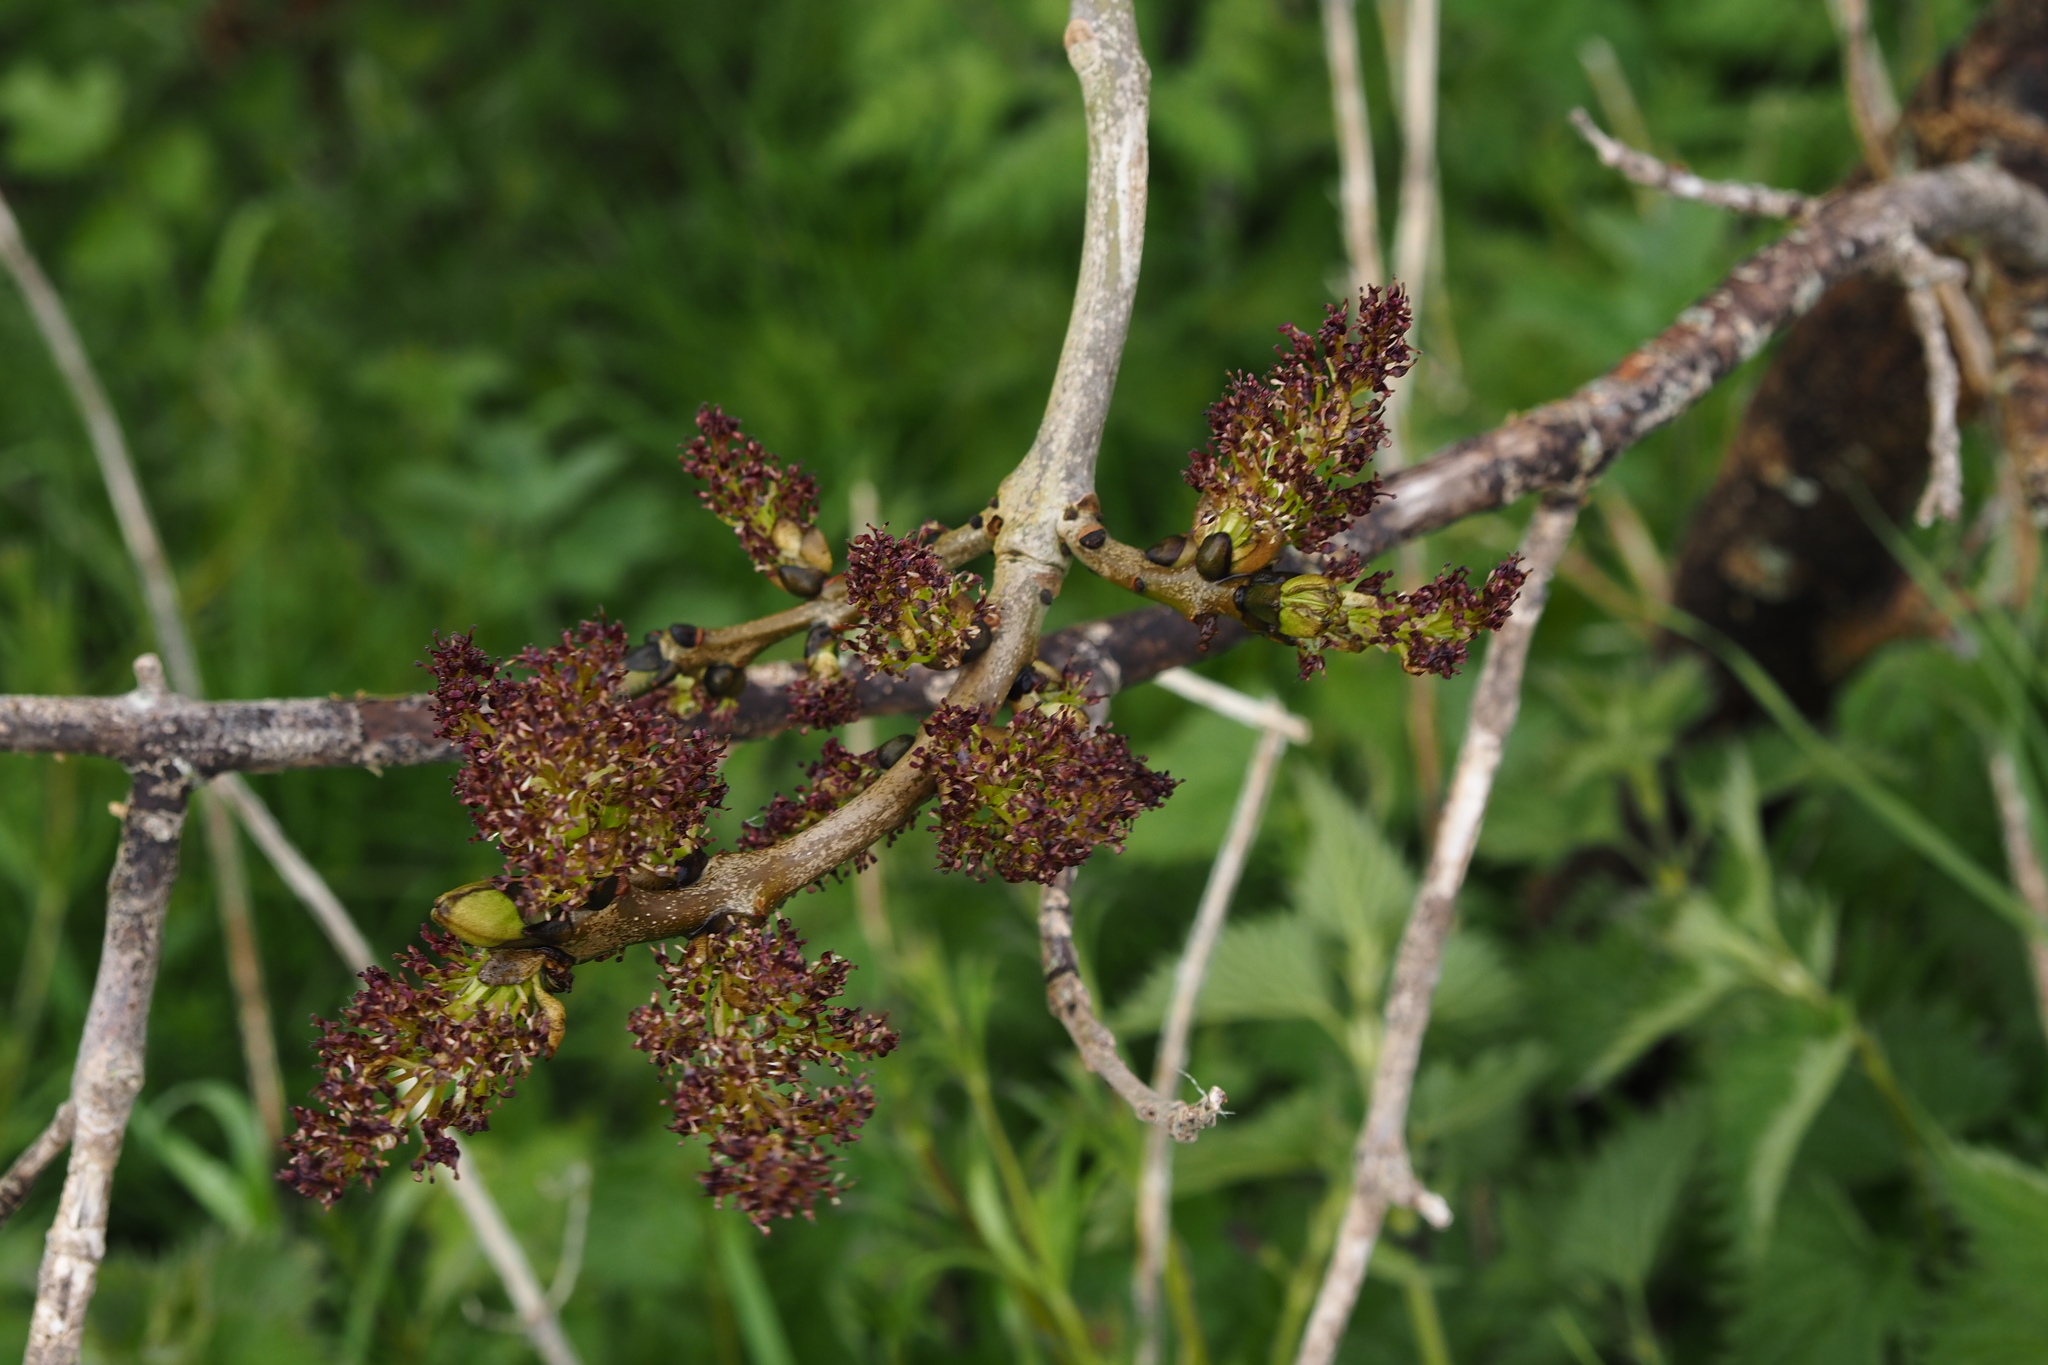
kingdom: Plantae
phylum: Tracheophyta
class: Magnoliopsida
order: Lamiales
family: Oleaceae
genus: Fraxinus
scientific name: Fraxinus excelsior
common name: European ash
